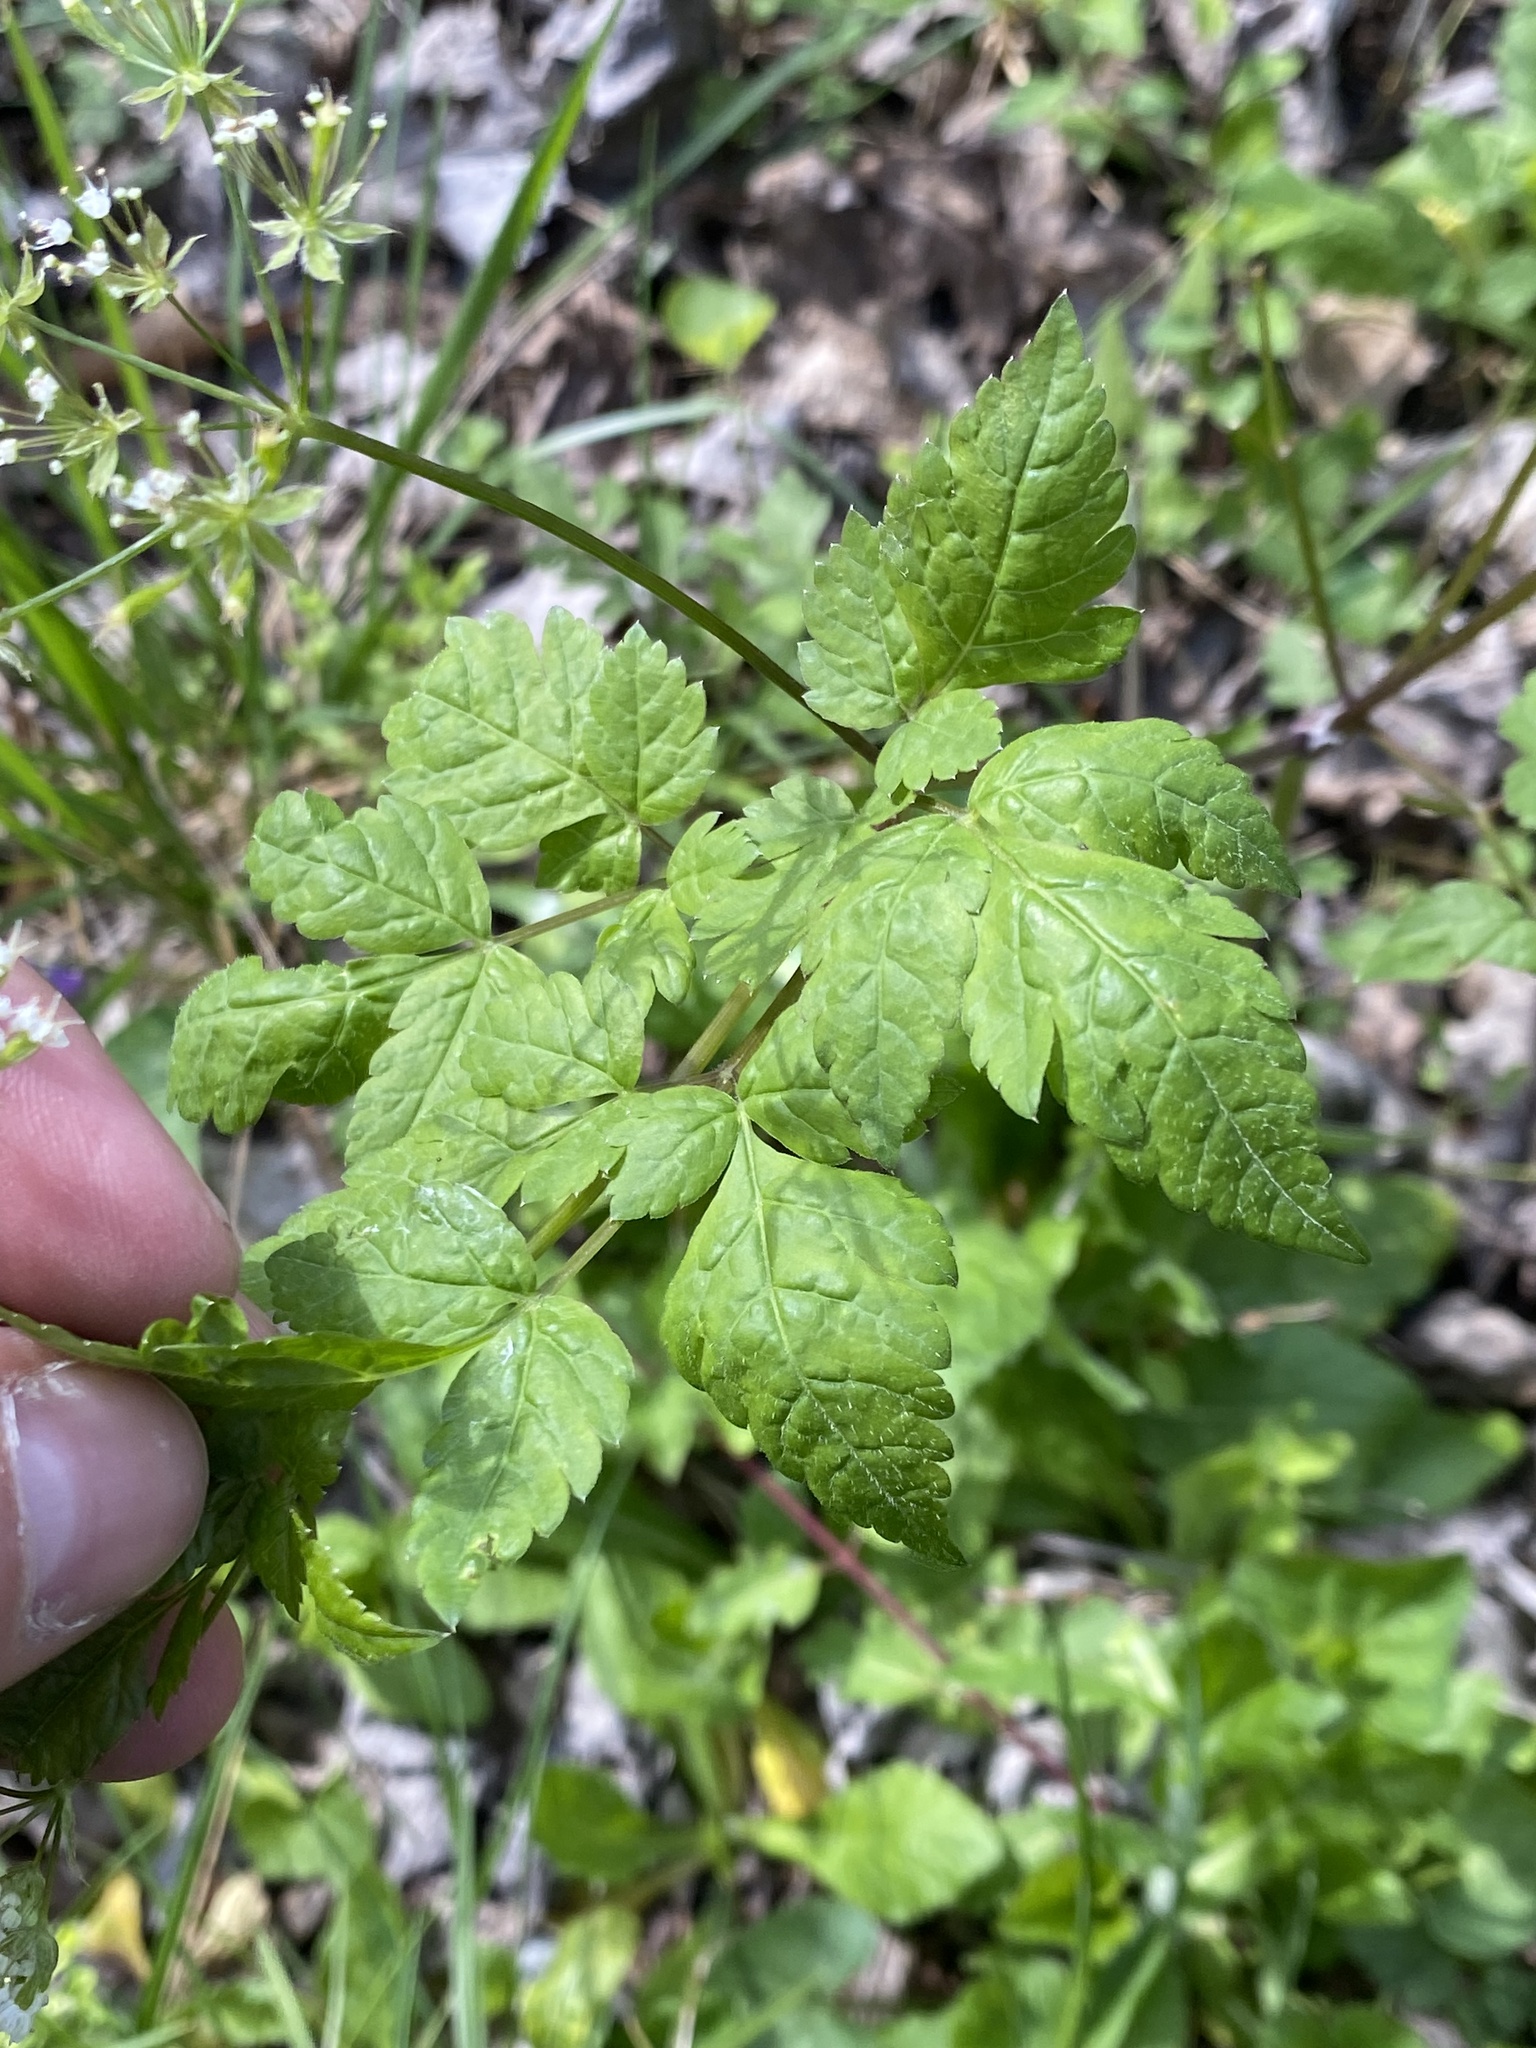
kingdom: Plantae
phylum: Tracheophyta
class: Magnoliopsida
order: Apiales
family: Apiaceae
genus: Osmorhiza
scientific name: Osmorhiza longistylis
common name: Smooth sweet cicely
